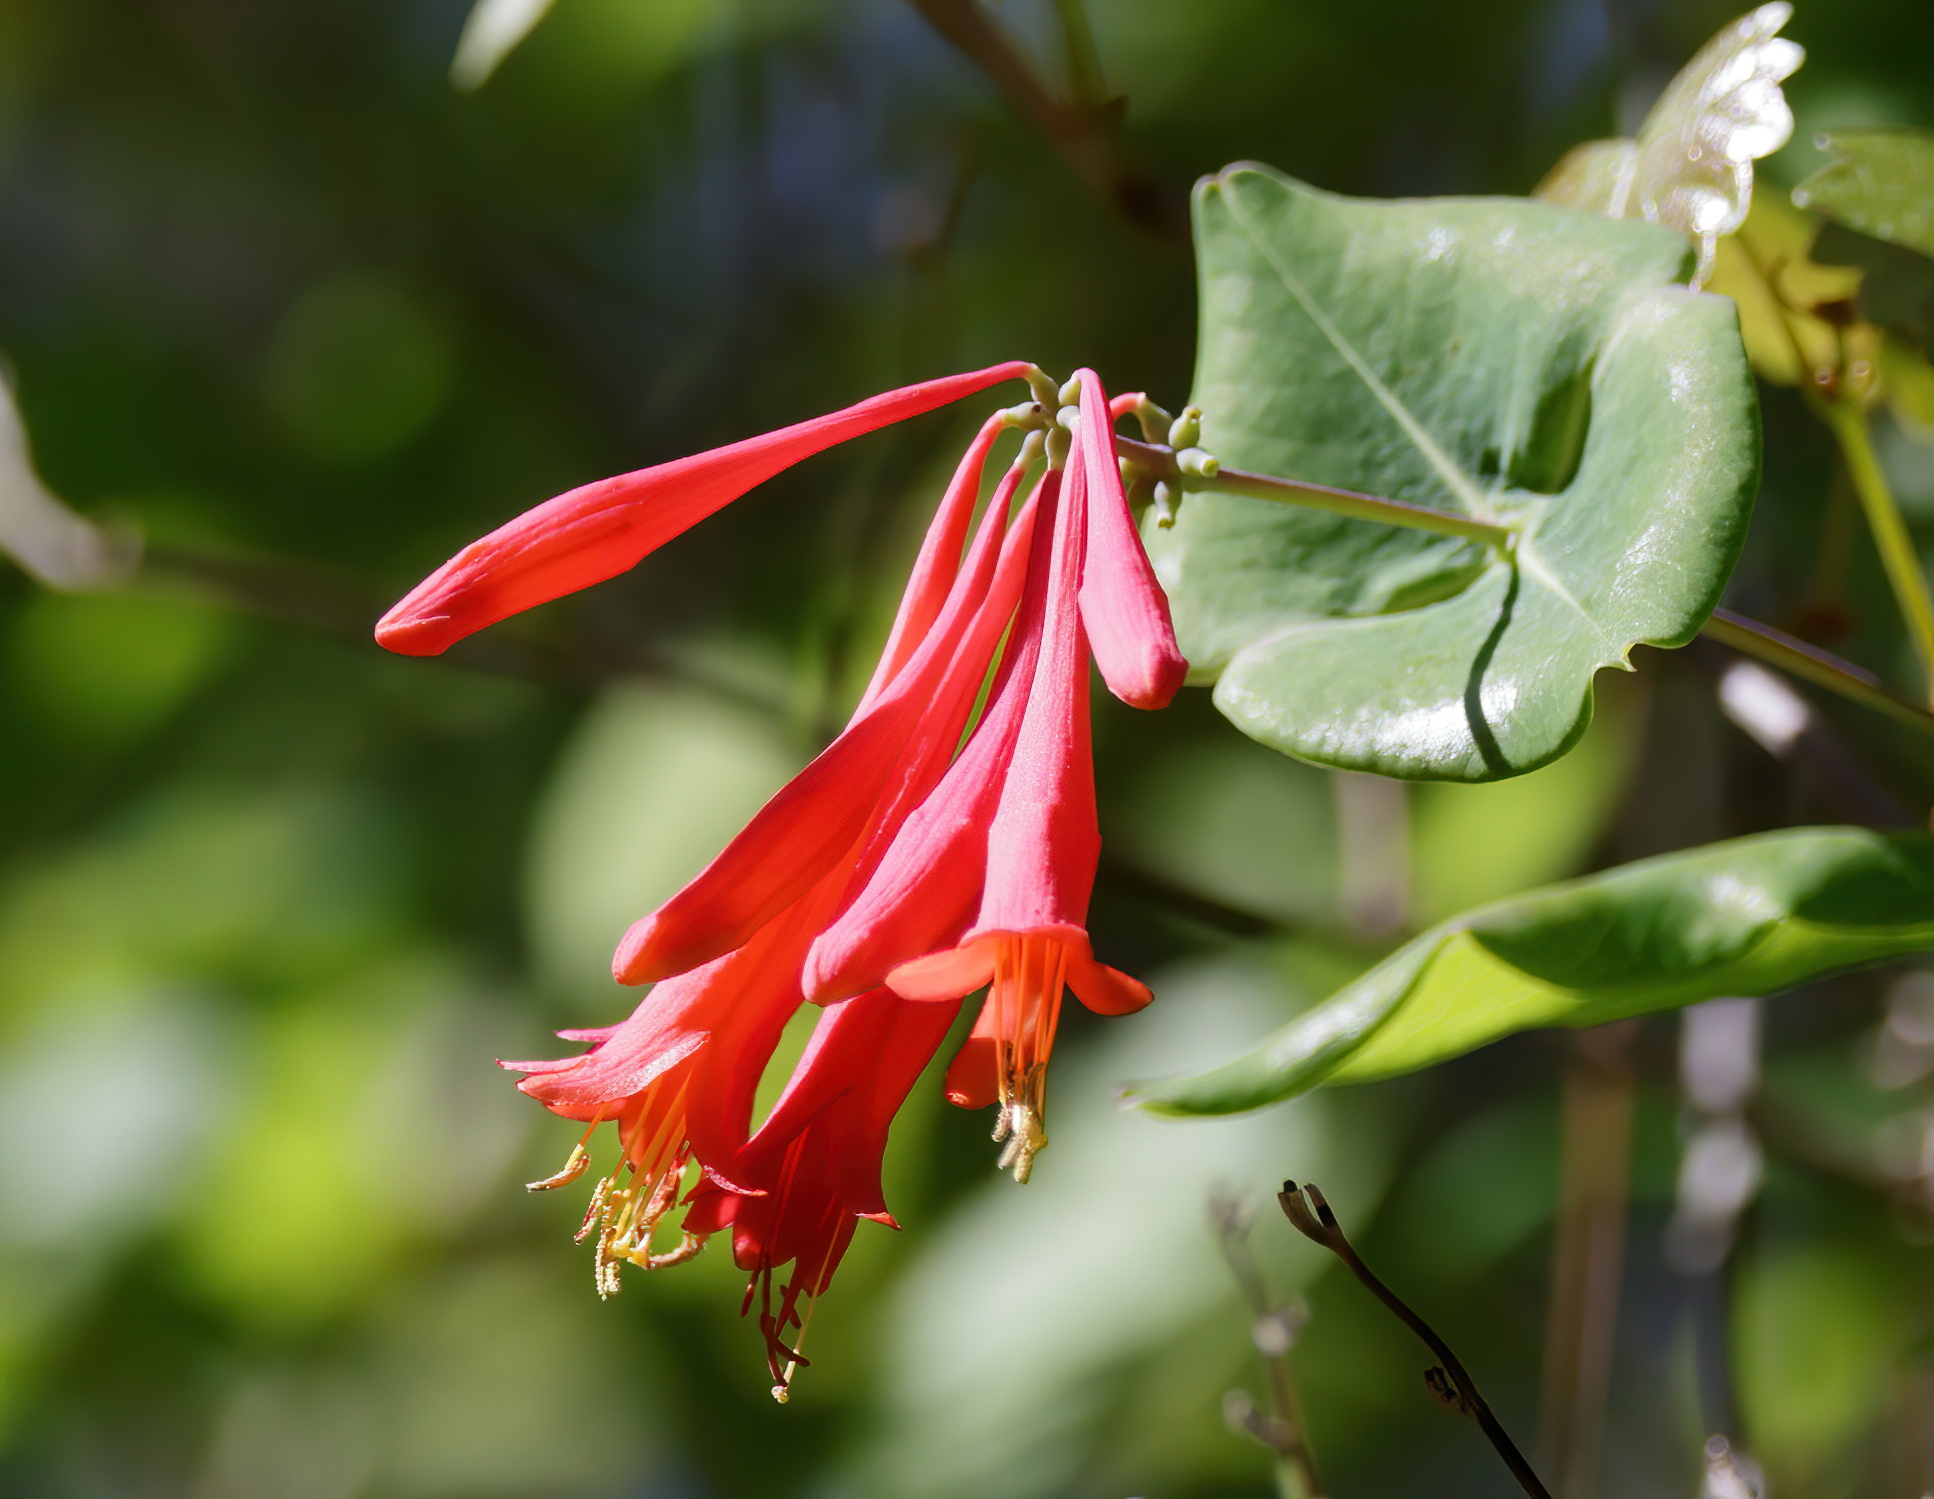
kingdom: Plantae
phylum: Tracheophyta
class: Magnoliopsida
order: Dipsacales
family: Caprifoliaceae
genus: Lonicera
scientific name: Lonicera sempervirens
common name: Coral honeysuckle
